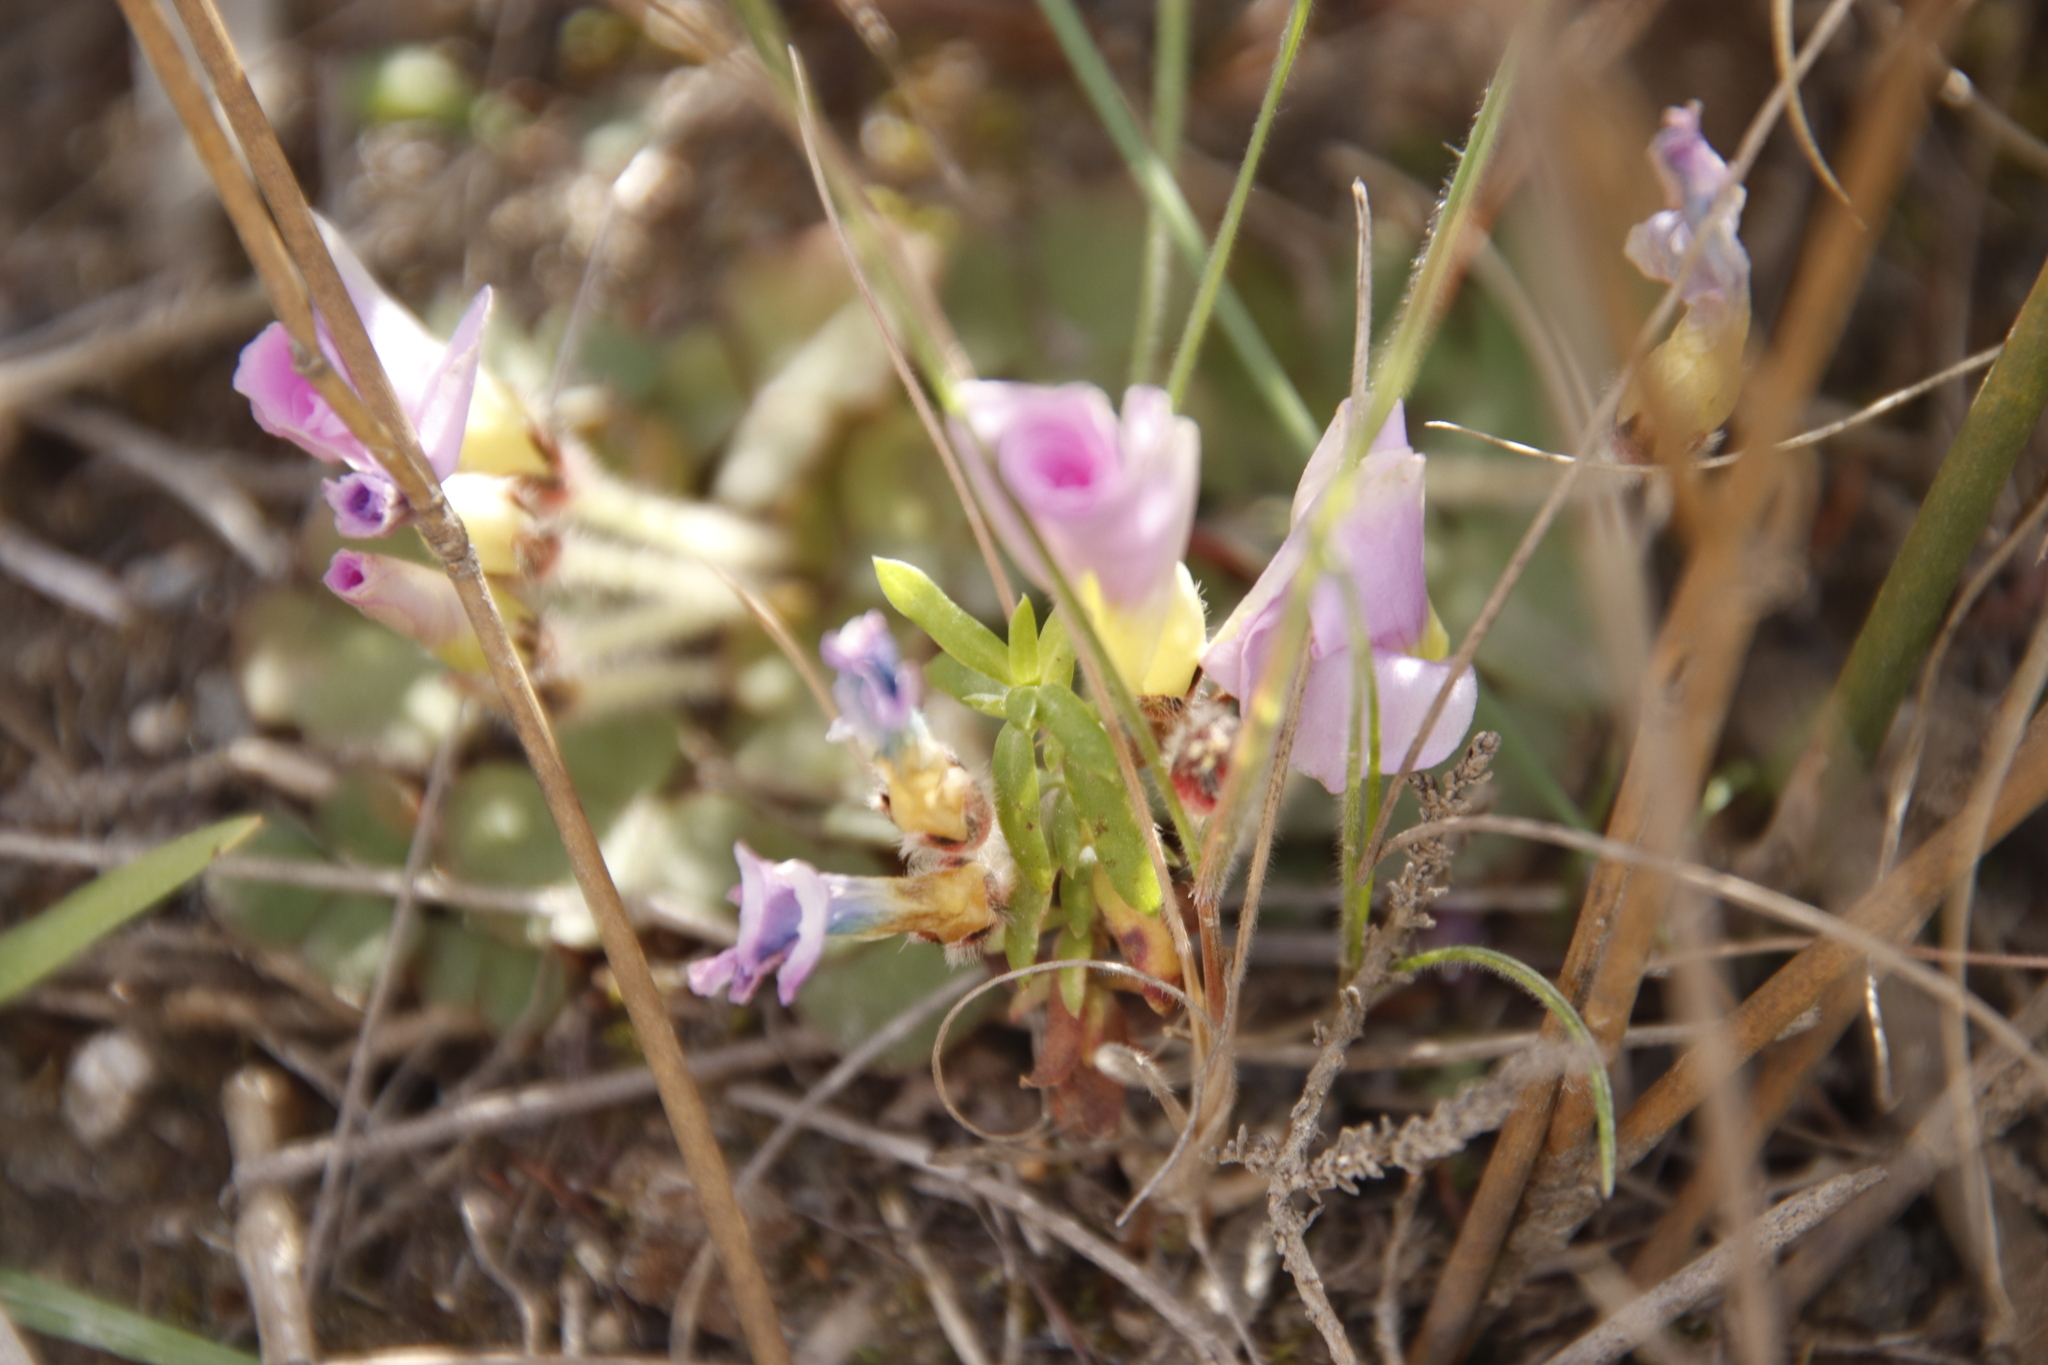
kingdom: Plantae
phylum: Tracheophyta
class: Liliopsida
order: Asparagales
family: Iridaceae
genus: Gladiolus
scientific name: Gladiolus patersoniae
